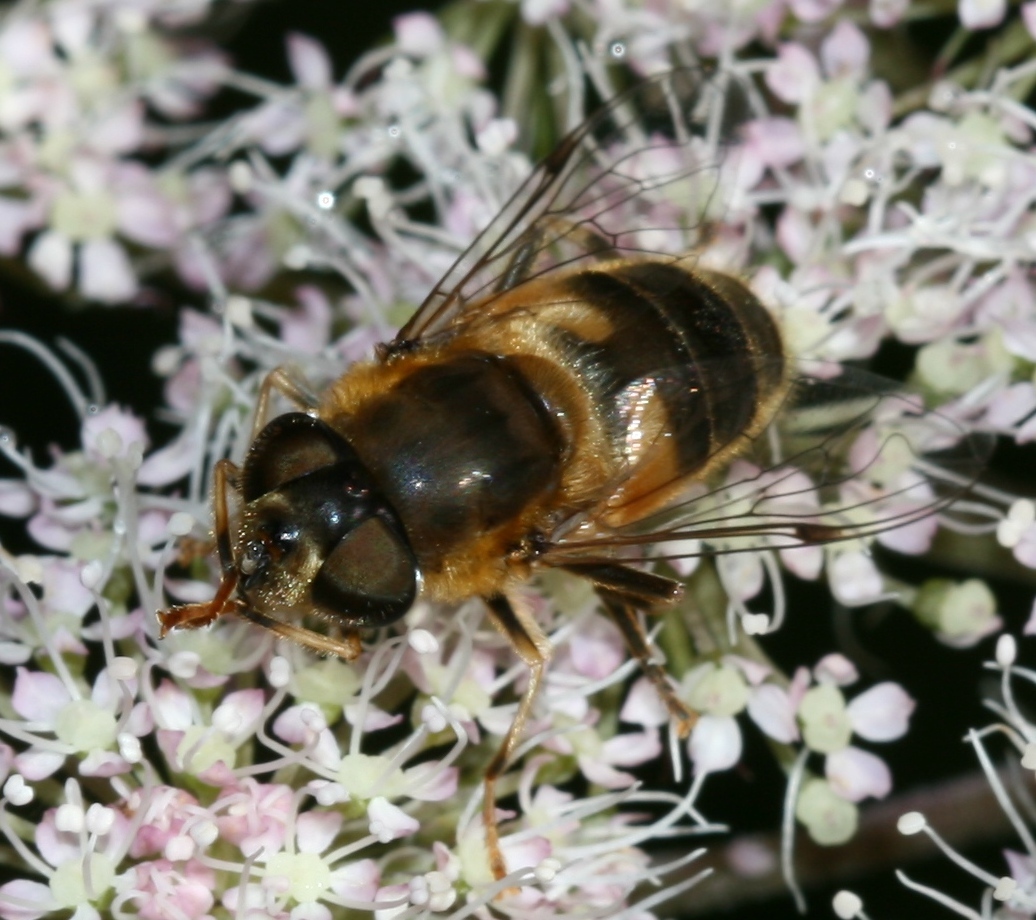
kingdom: Animalia
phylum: Arthropoda
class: Insecta
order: Diptera
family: Syrphidae
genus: Eristalis
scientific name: Eristalis pertinax
